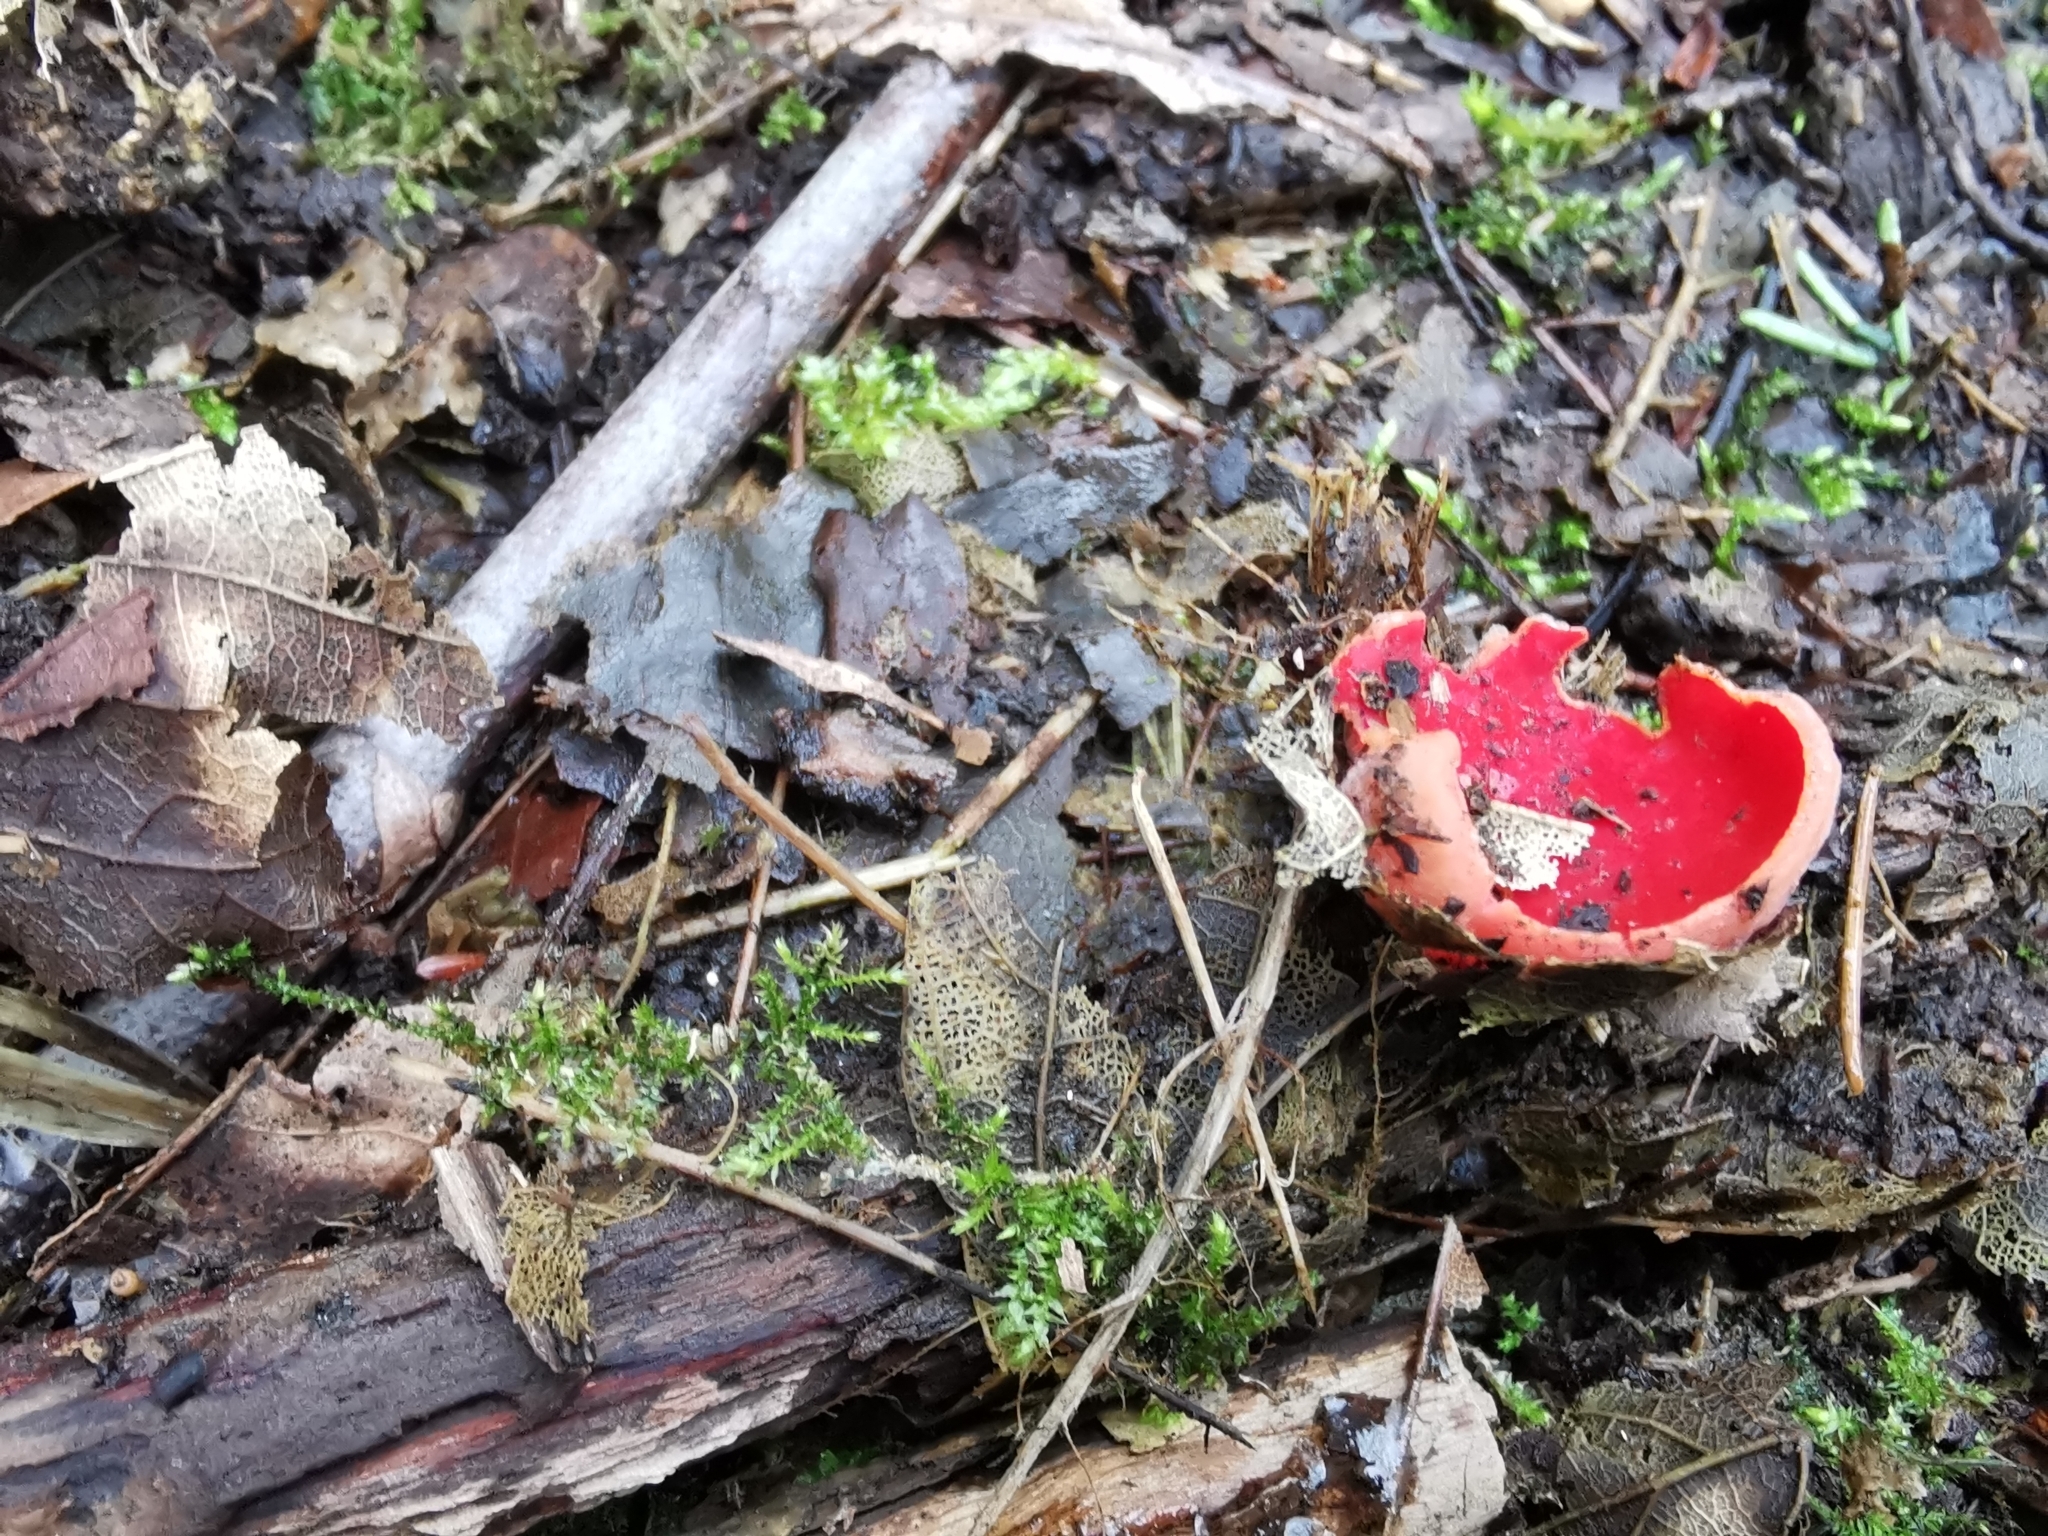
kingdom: Fungi
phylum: Ascomycota
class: Pezizomycetes
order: Pezizales
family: Sarcoscyphaceae
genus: Sarcoscypha
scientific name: Sarcoscypha
